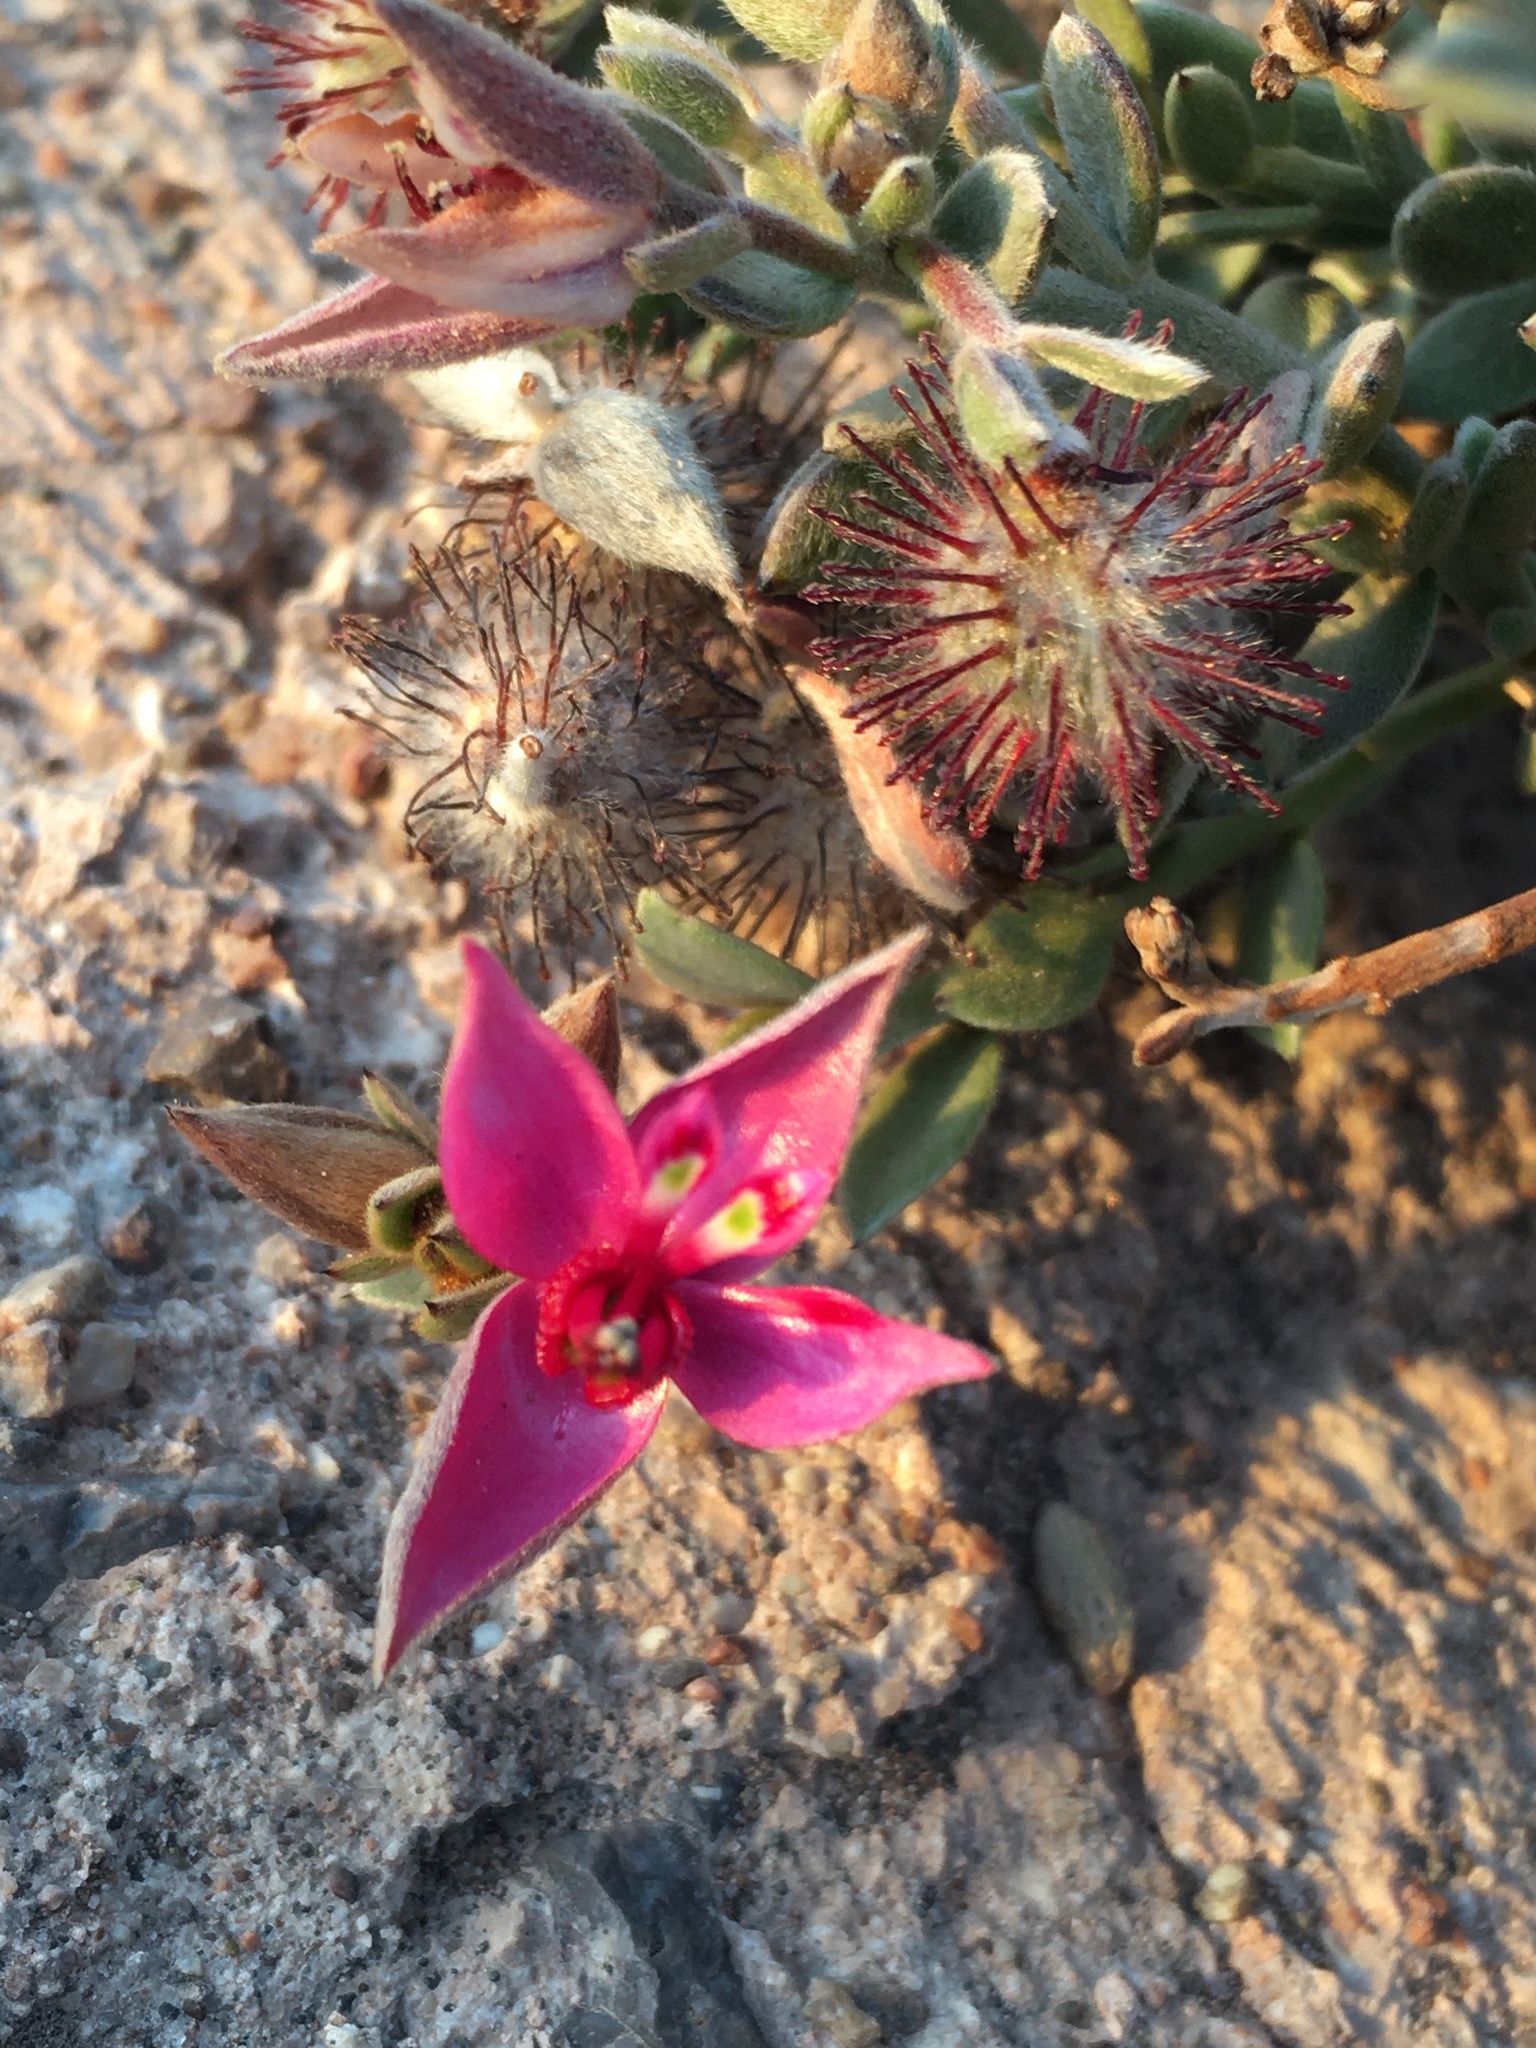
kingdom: Plantae
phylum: Tracheophyta
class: Magnoliopsida
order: Zygophyllales
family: Krameriaceae
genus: Krameria
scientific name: Krameria lappacea
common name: Rhatany
